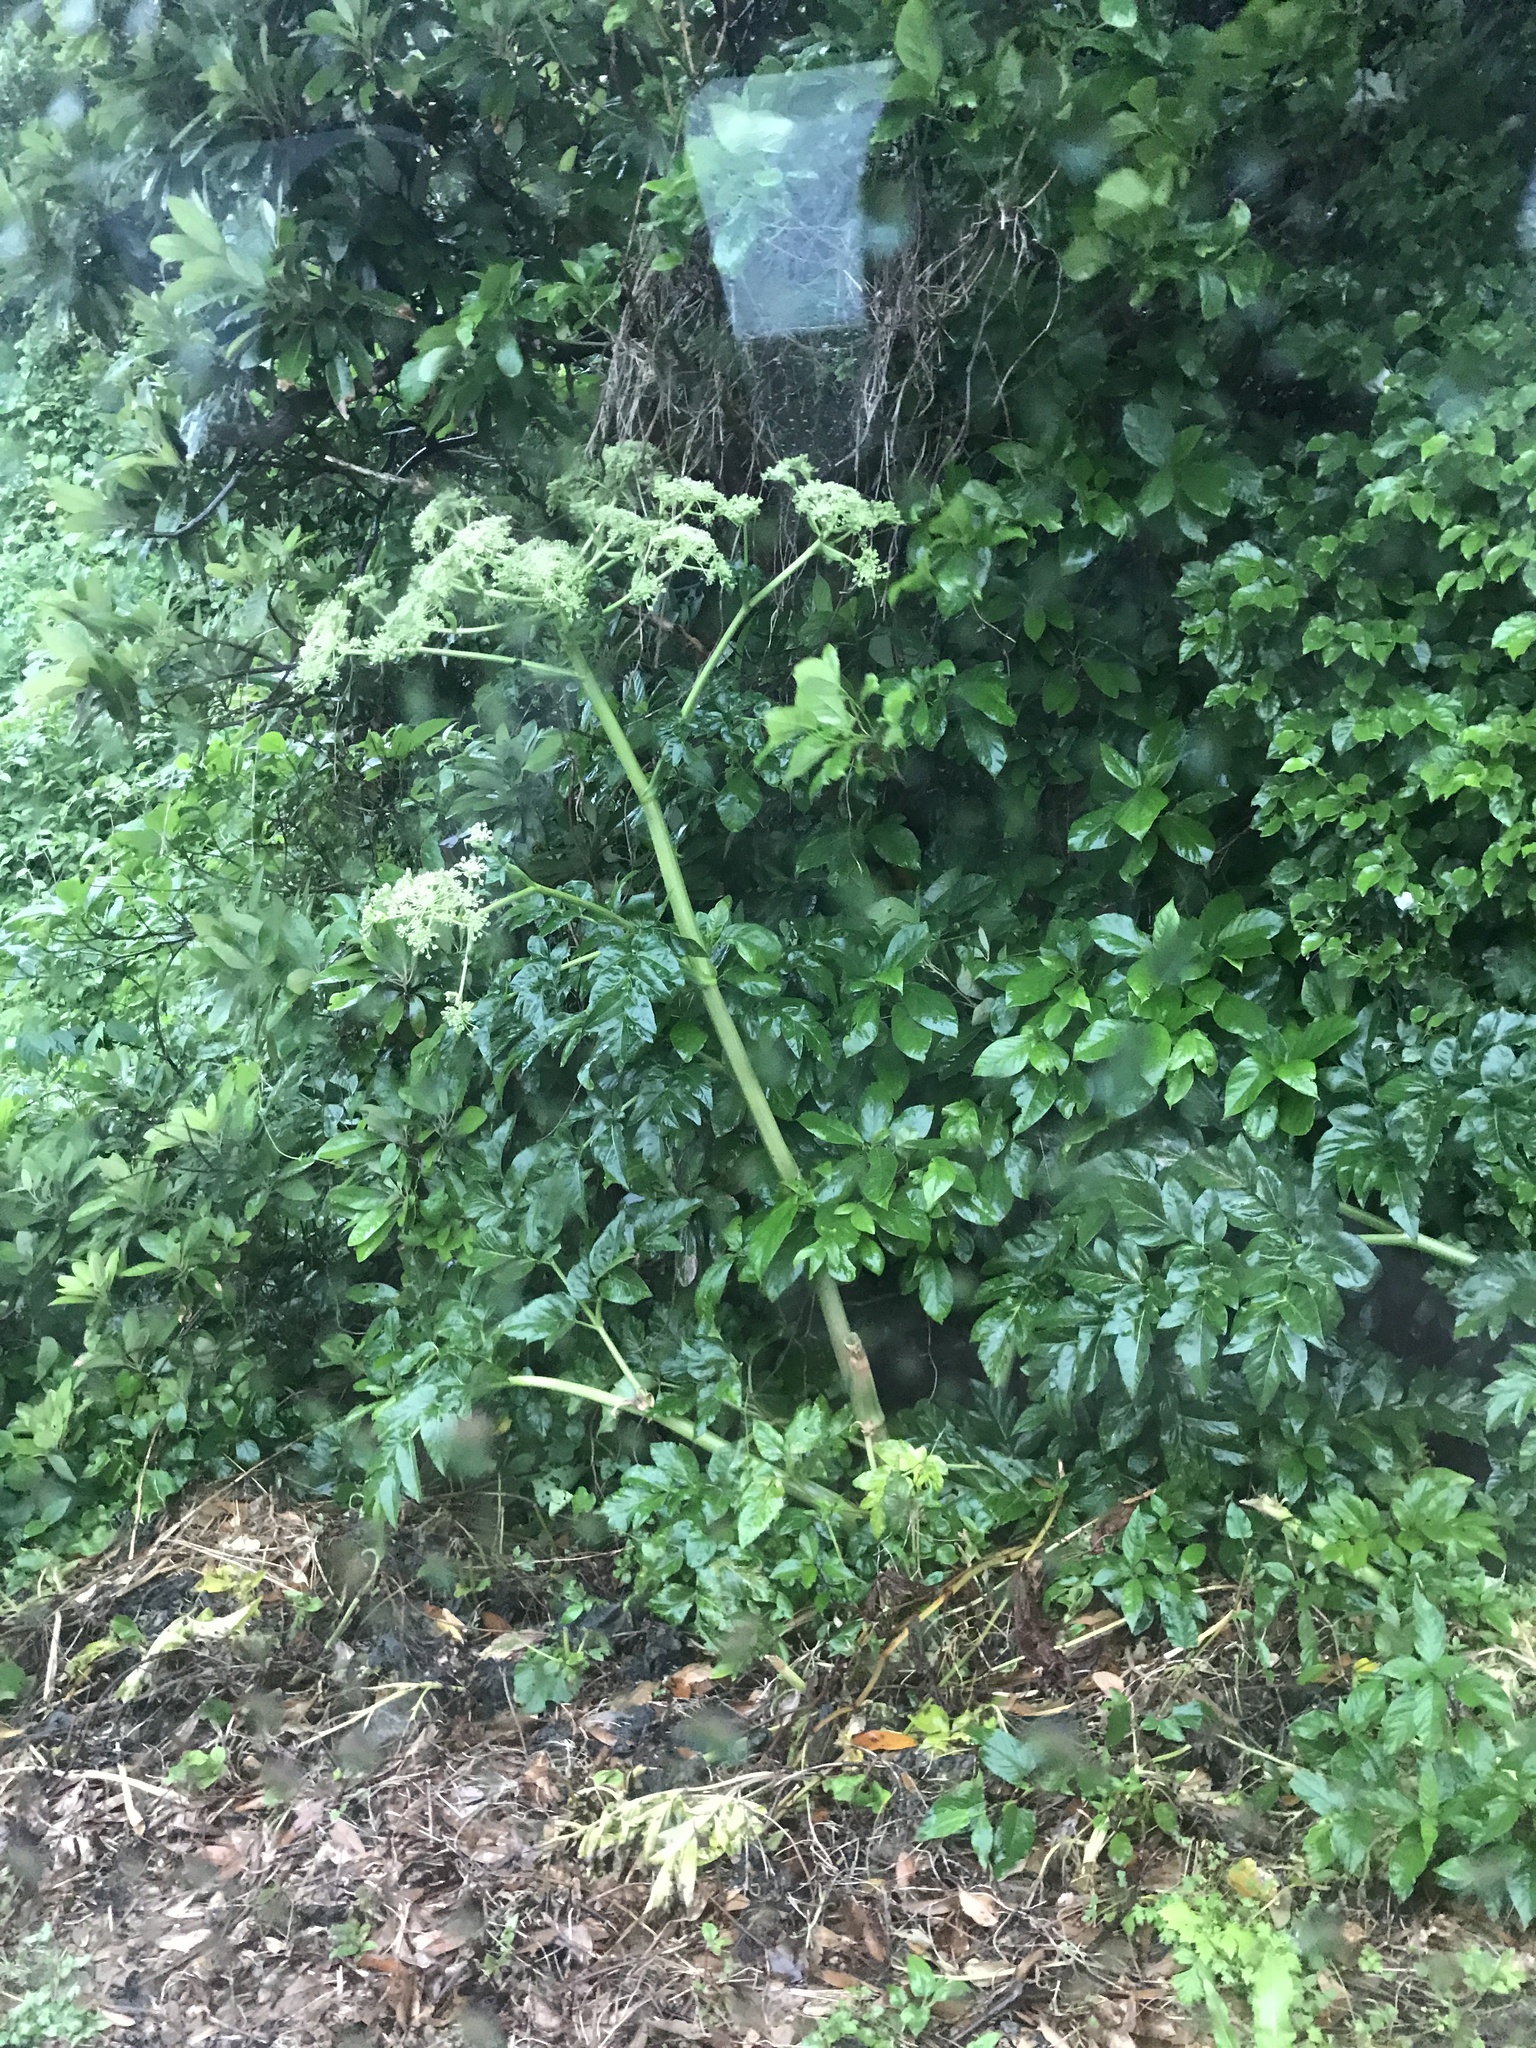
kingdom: Plantae
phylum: Tracheophyta
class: Magnoliopsida
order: Apiales
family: Apiaceae
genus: Angelica
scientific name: Angelica japonica
